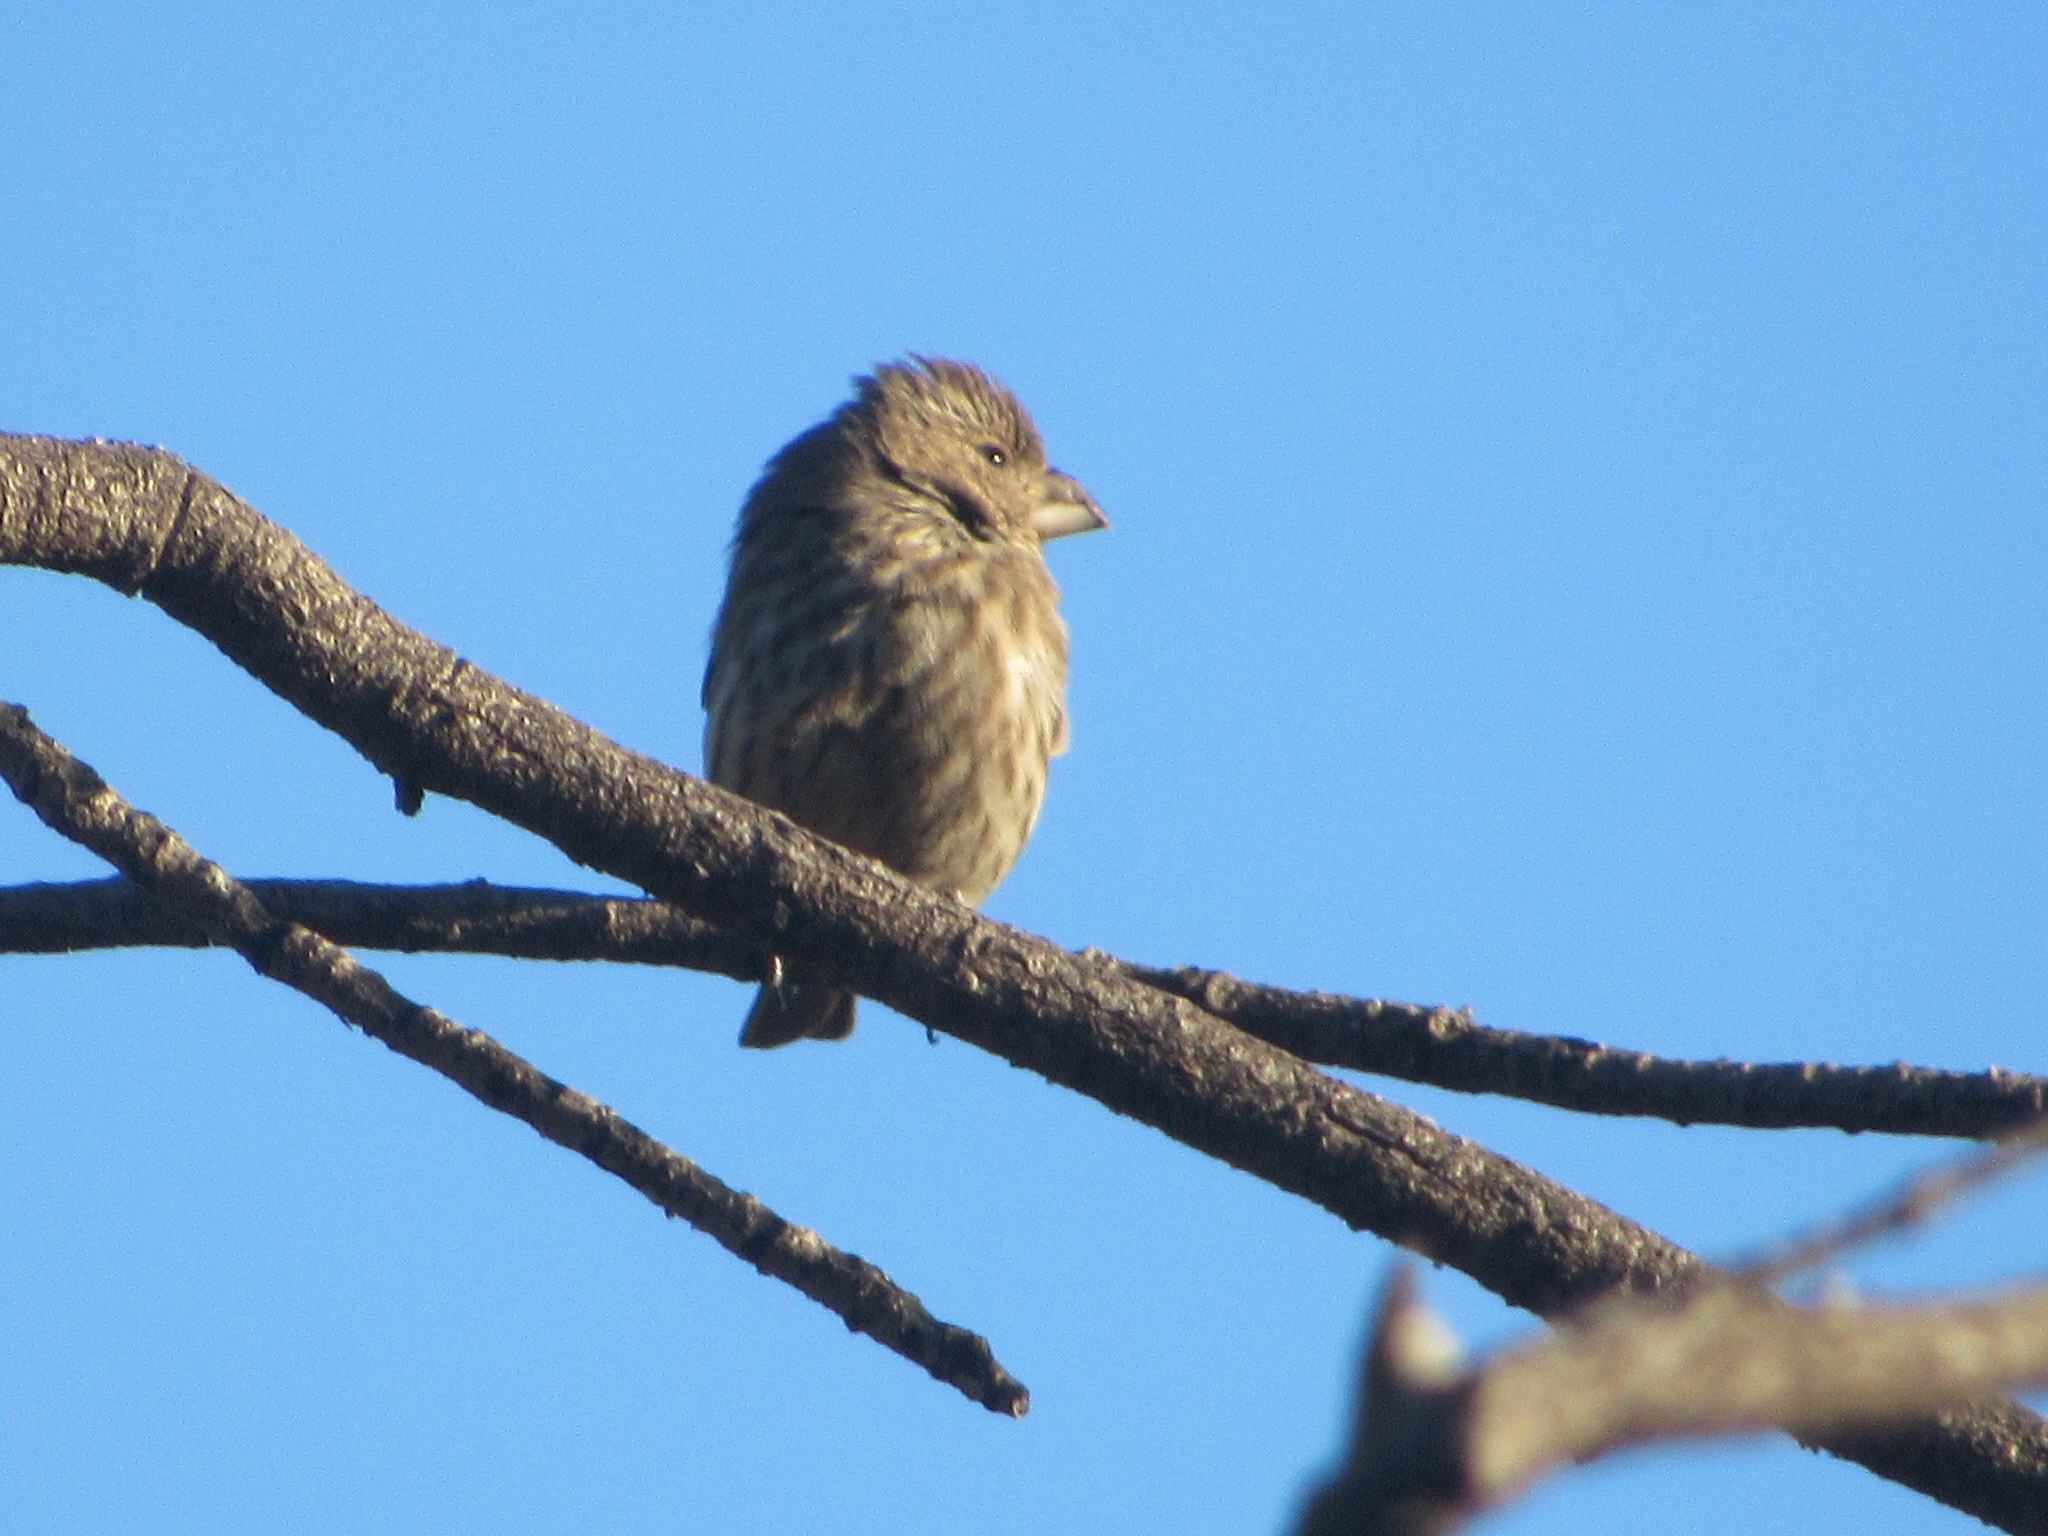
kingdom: Animalia
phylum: Chordata
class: Aves
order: Passeriformes
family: Fringillidae
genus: Haemorhous
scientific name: Haemorhous mexicanus
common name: House finch
